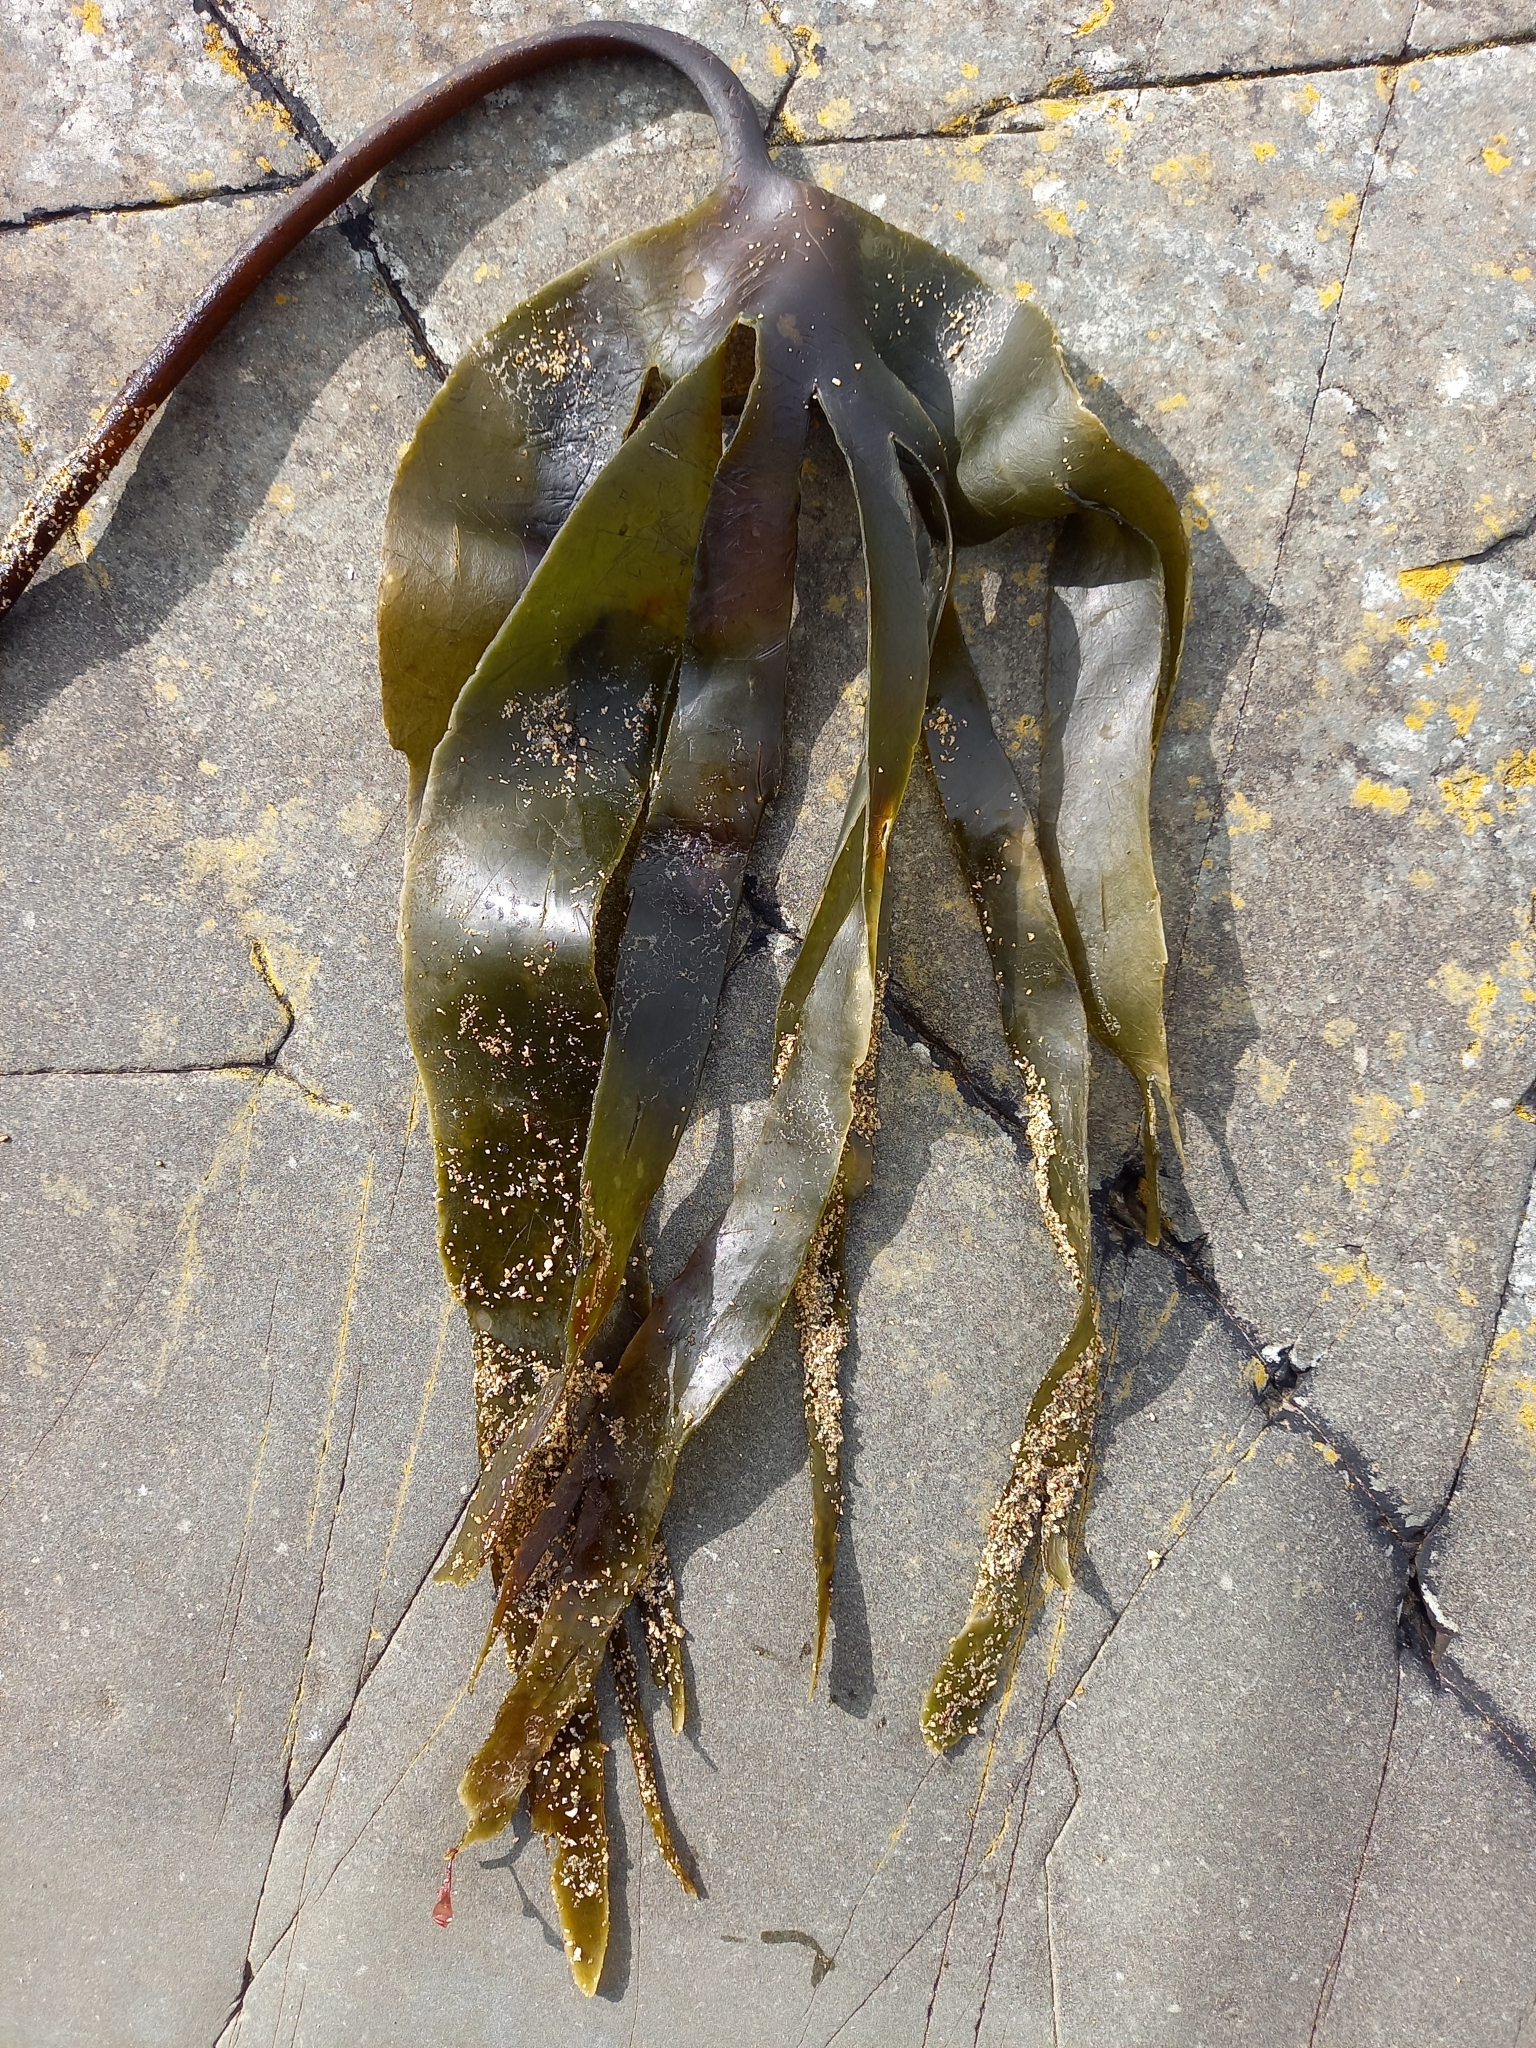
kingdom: Chromista
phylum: Ochrophyta
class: Phaeophyceae
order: Laminariales
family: Laminariaceae
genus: Laminaria
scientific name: Laminaria digitata
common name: Oarweed
